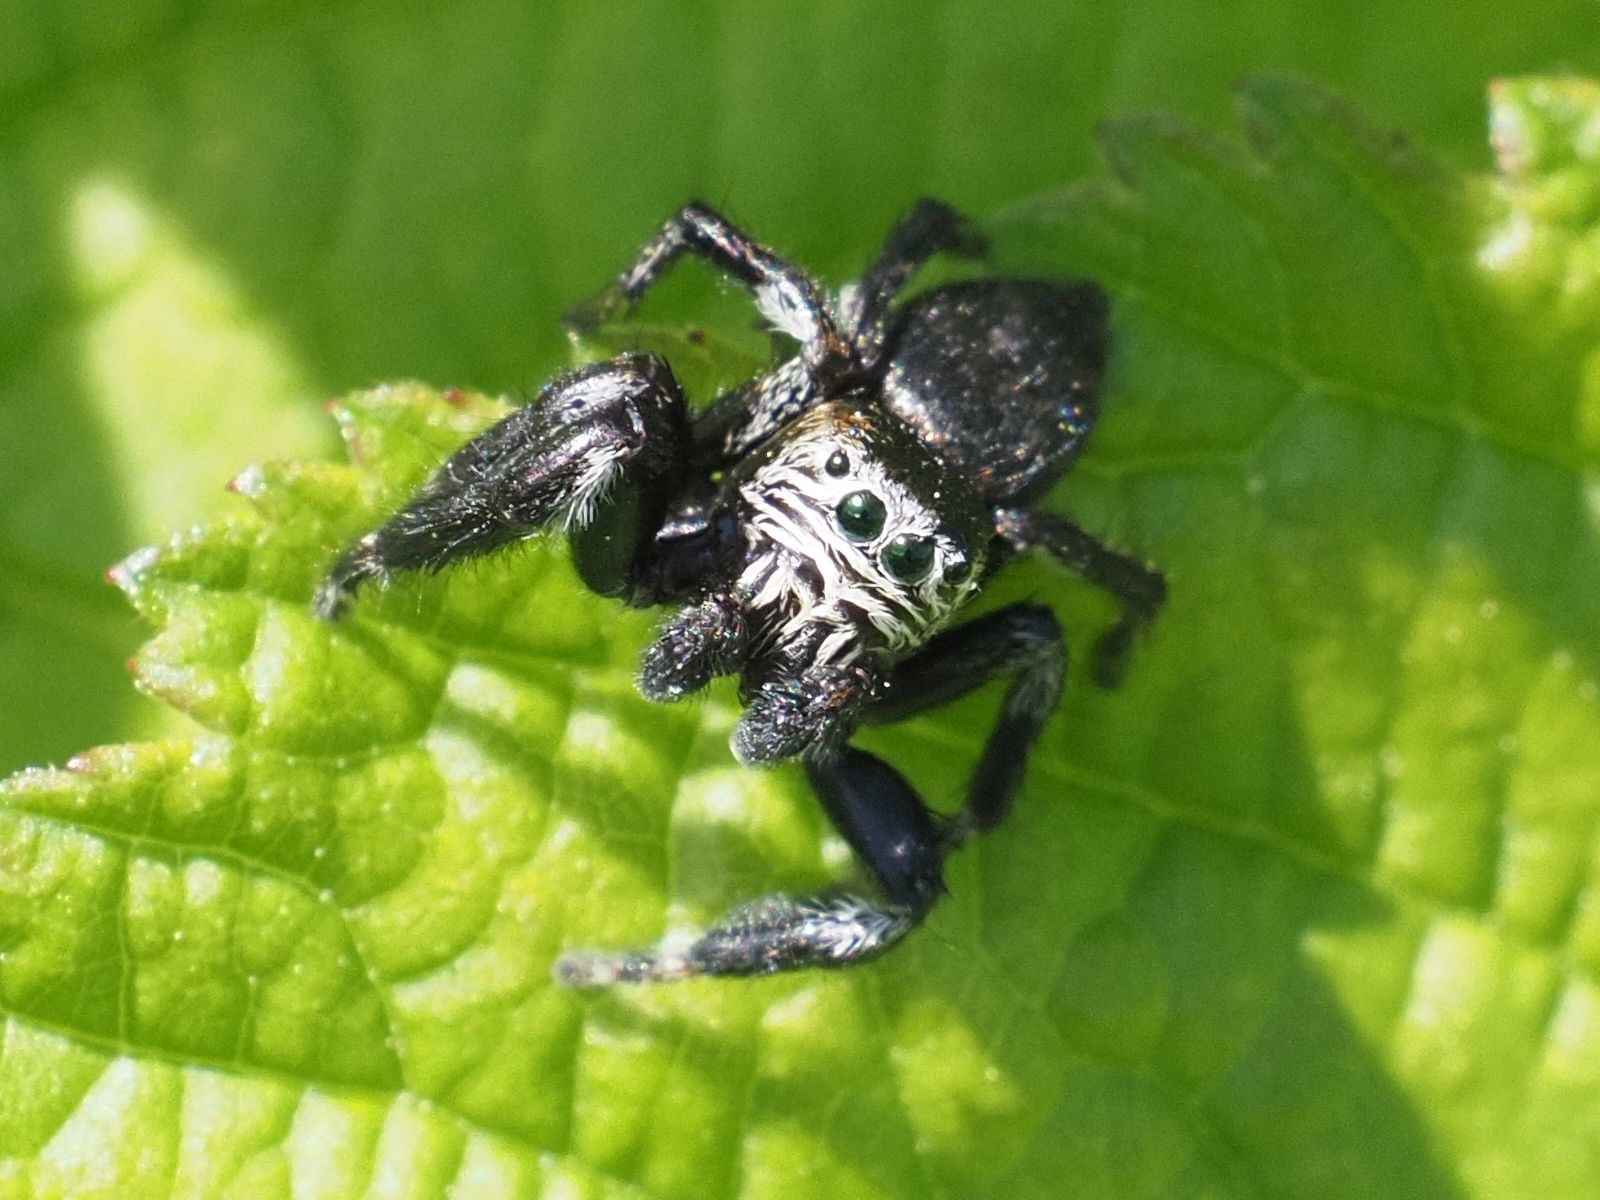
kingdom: Animalia
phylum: Arthropoda
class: Arachnida
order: Araneae
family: Salticidae
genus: Evarcha
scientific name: Evarcha arcuata
